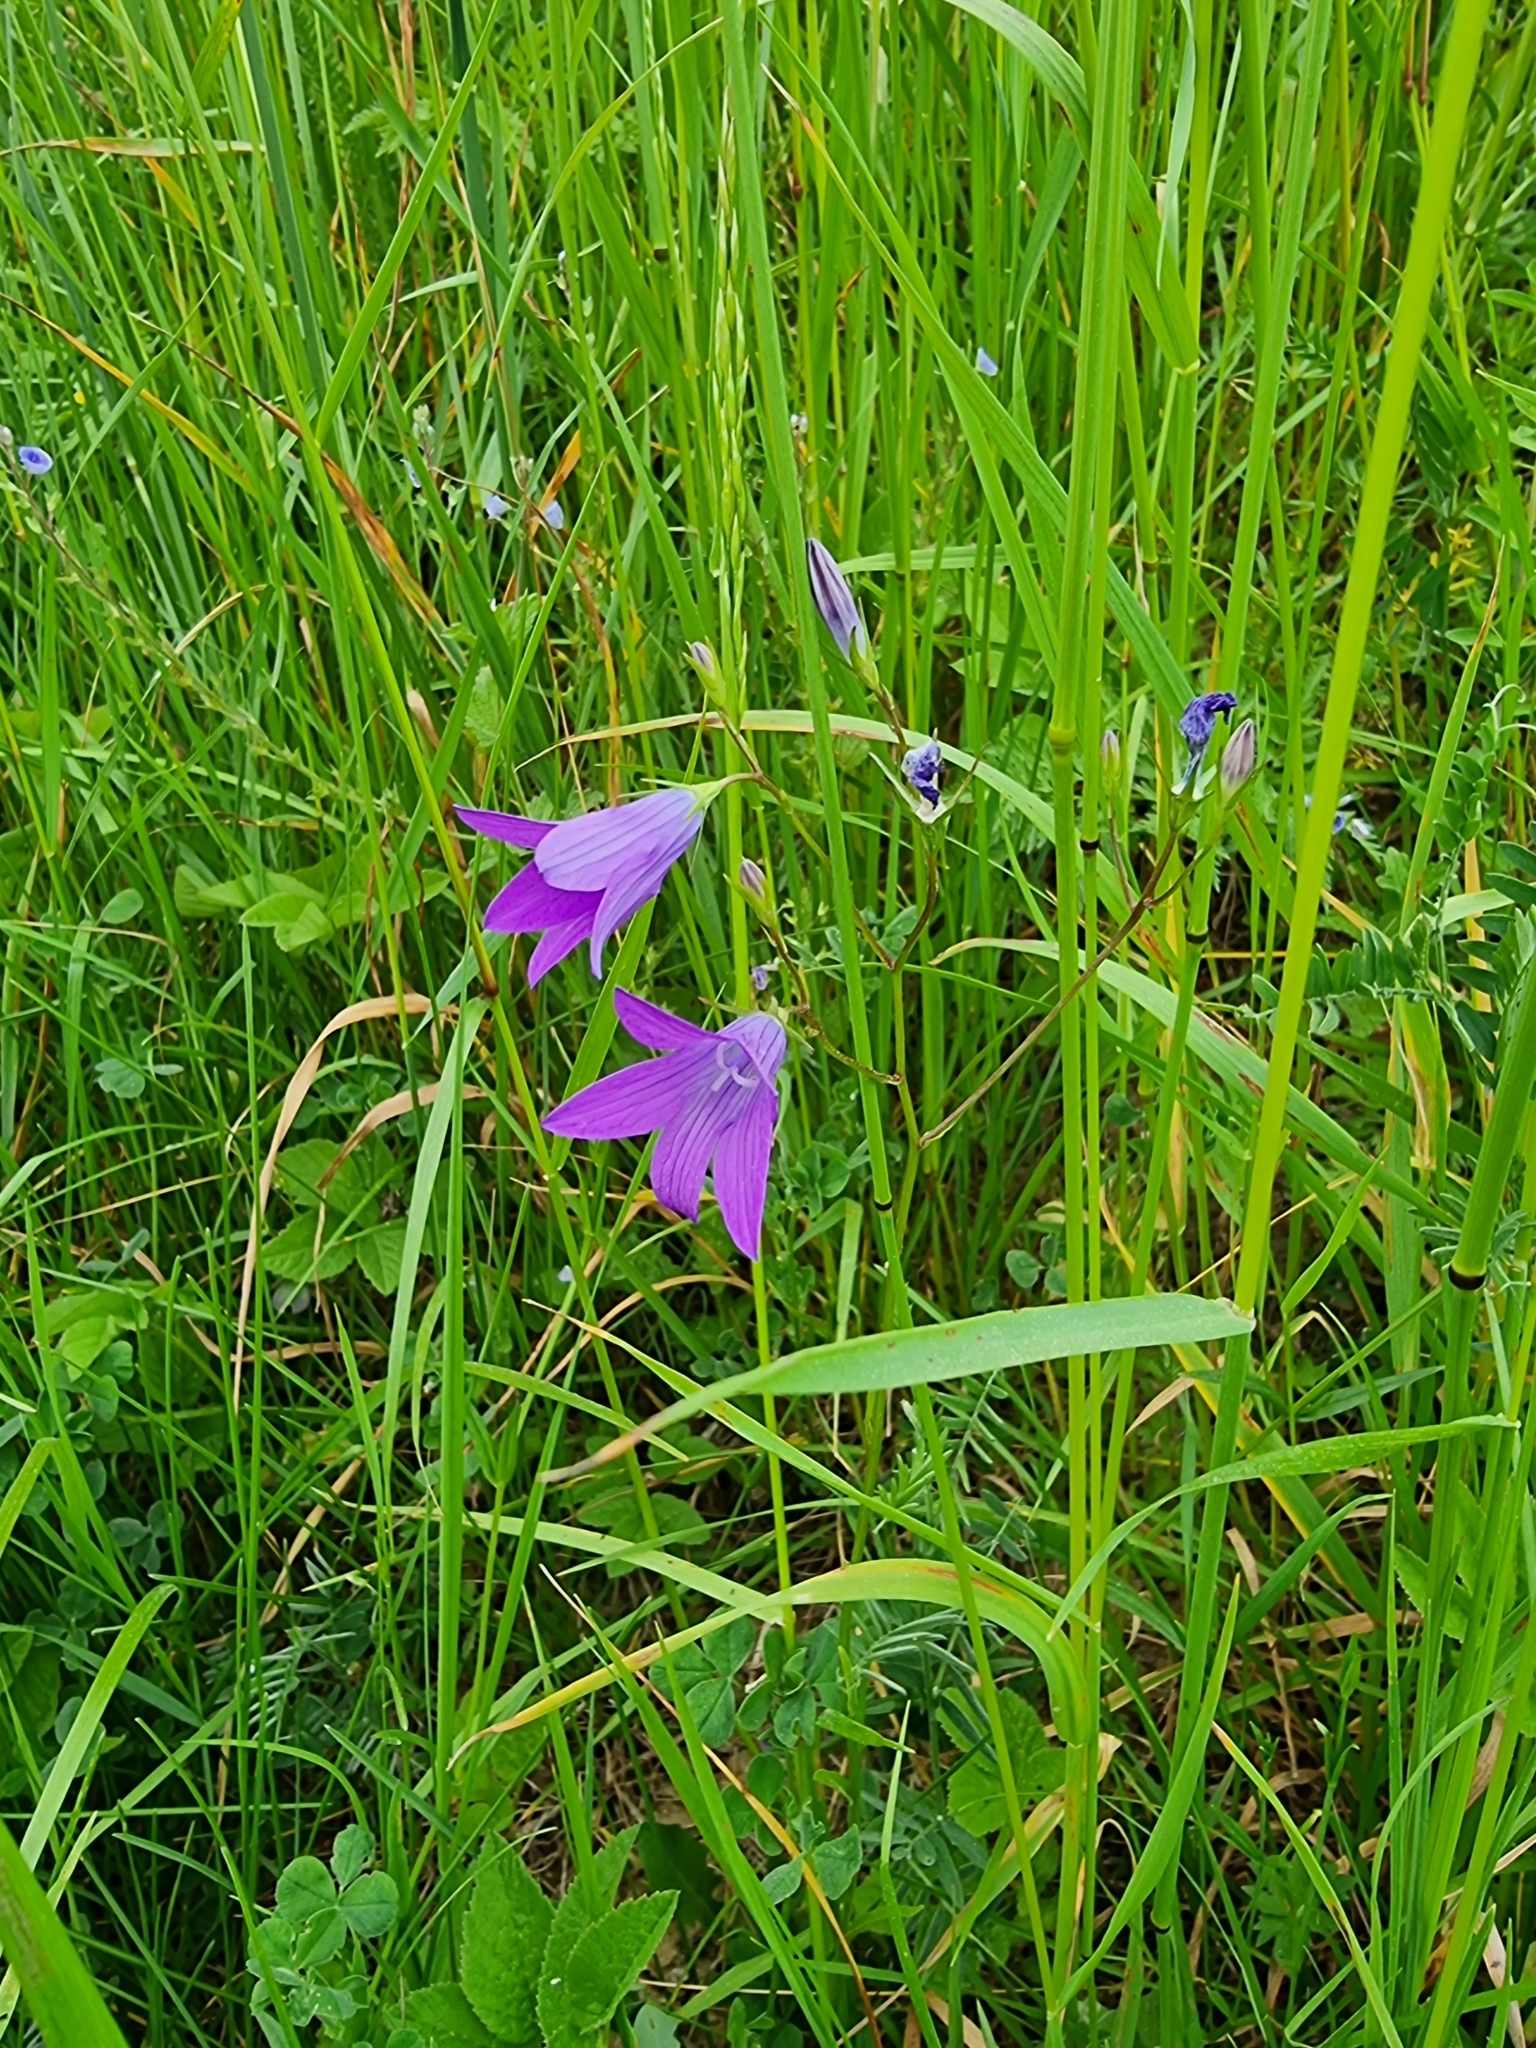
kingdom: Plantae
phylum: Tracheophyta
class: Magnoliopsida
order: Asterales
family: Campanulaceae
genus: Campanula
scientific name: Campanula patula
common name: Spreading bellflower
